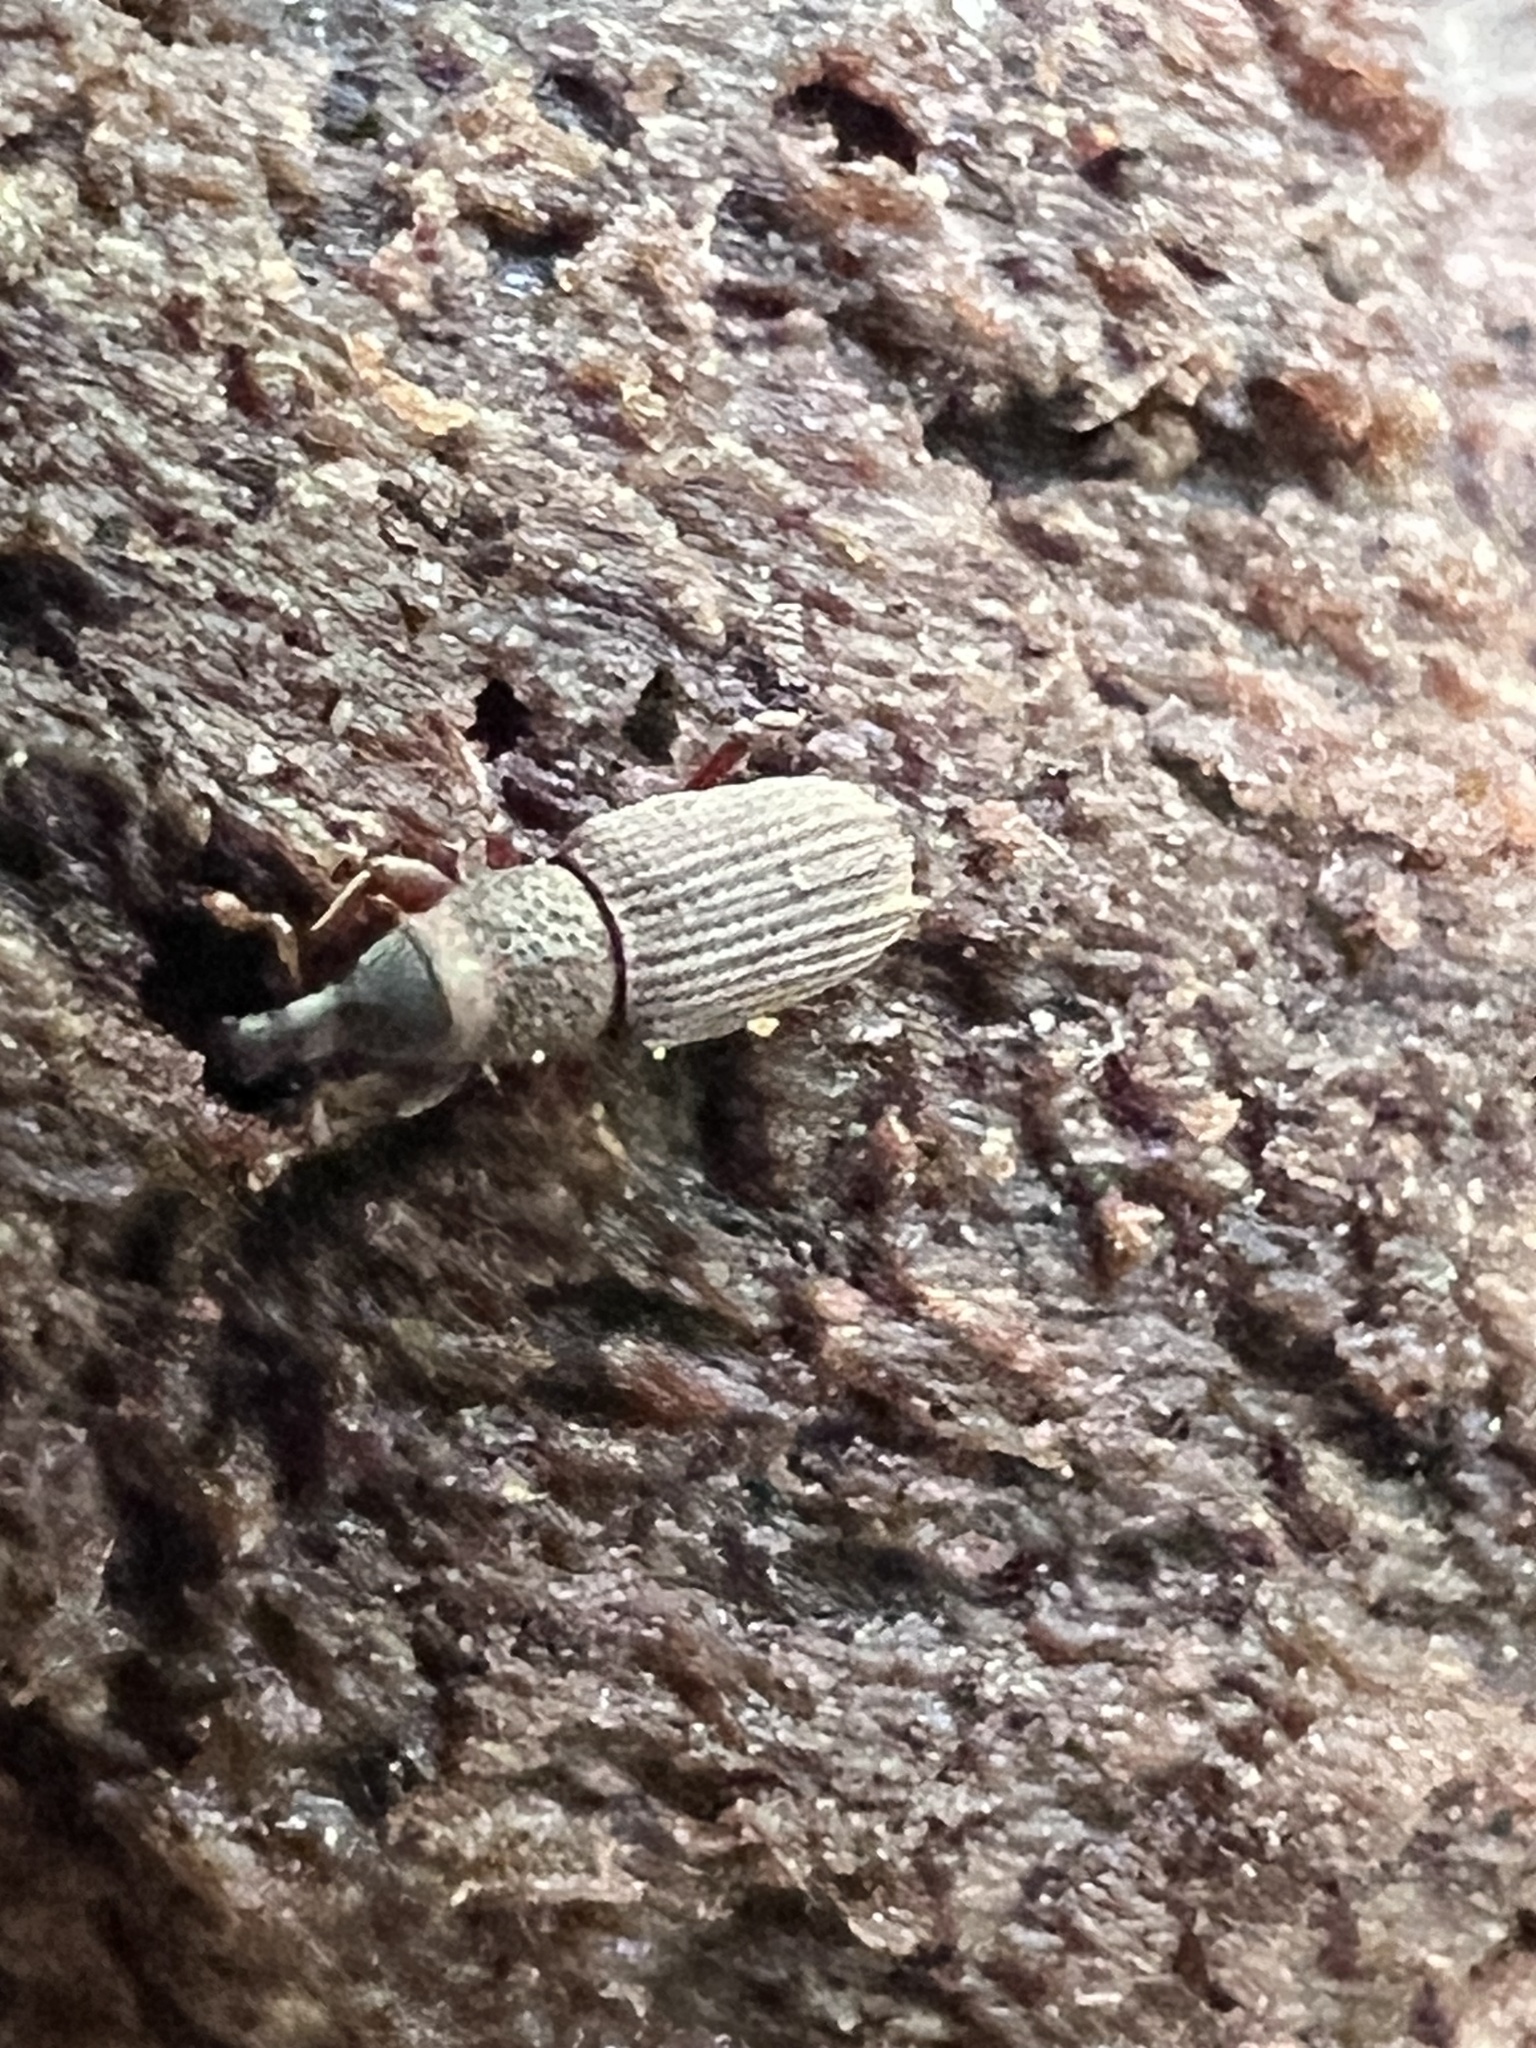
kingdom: Animalia
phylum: Arthropoda
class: Insecta
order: Coleoptera
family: Dryophthoridae
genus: Dryophthorus
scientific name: Dryophthorus americanus
